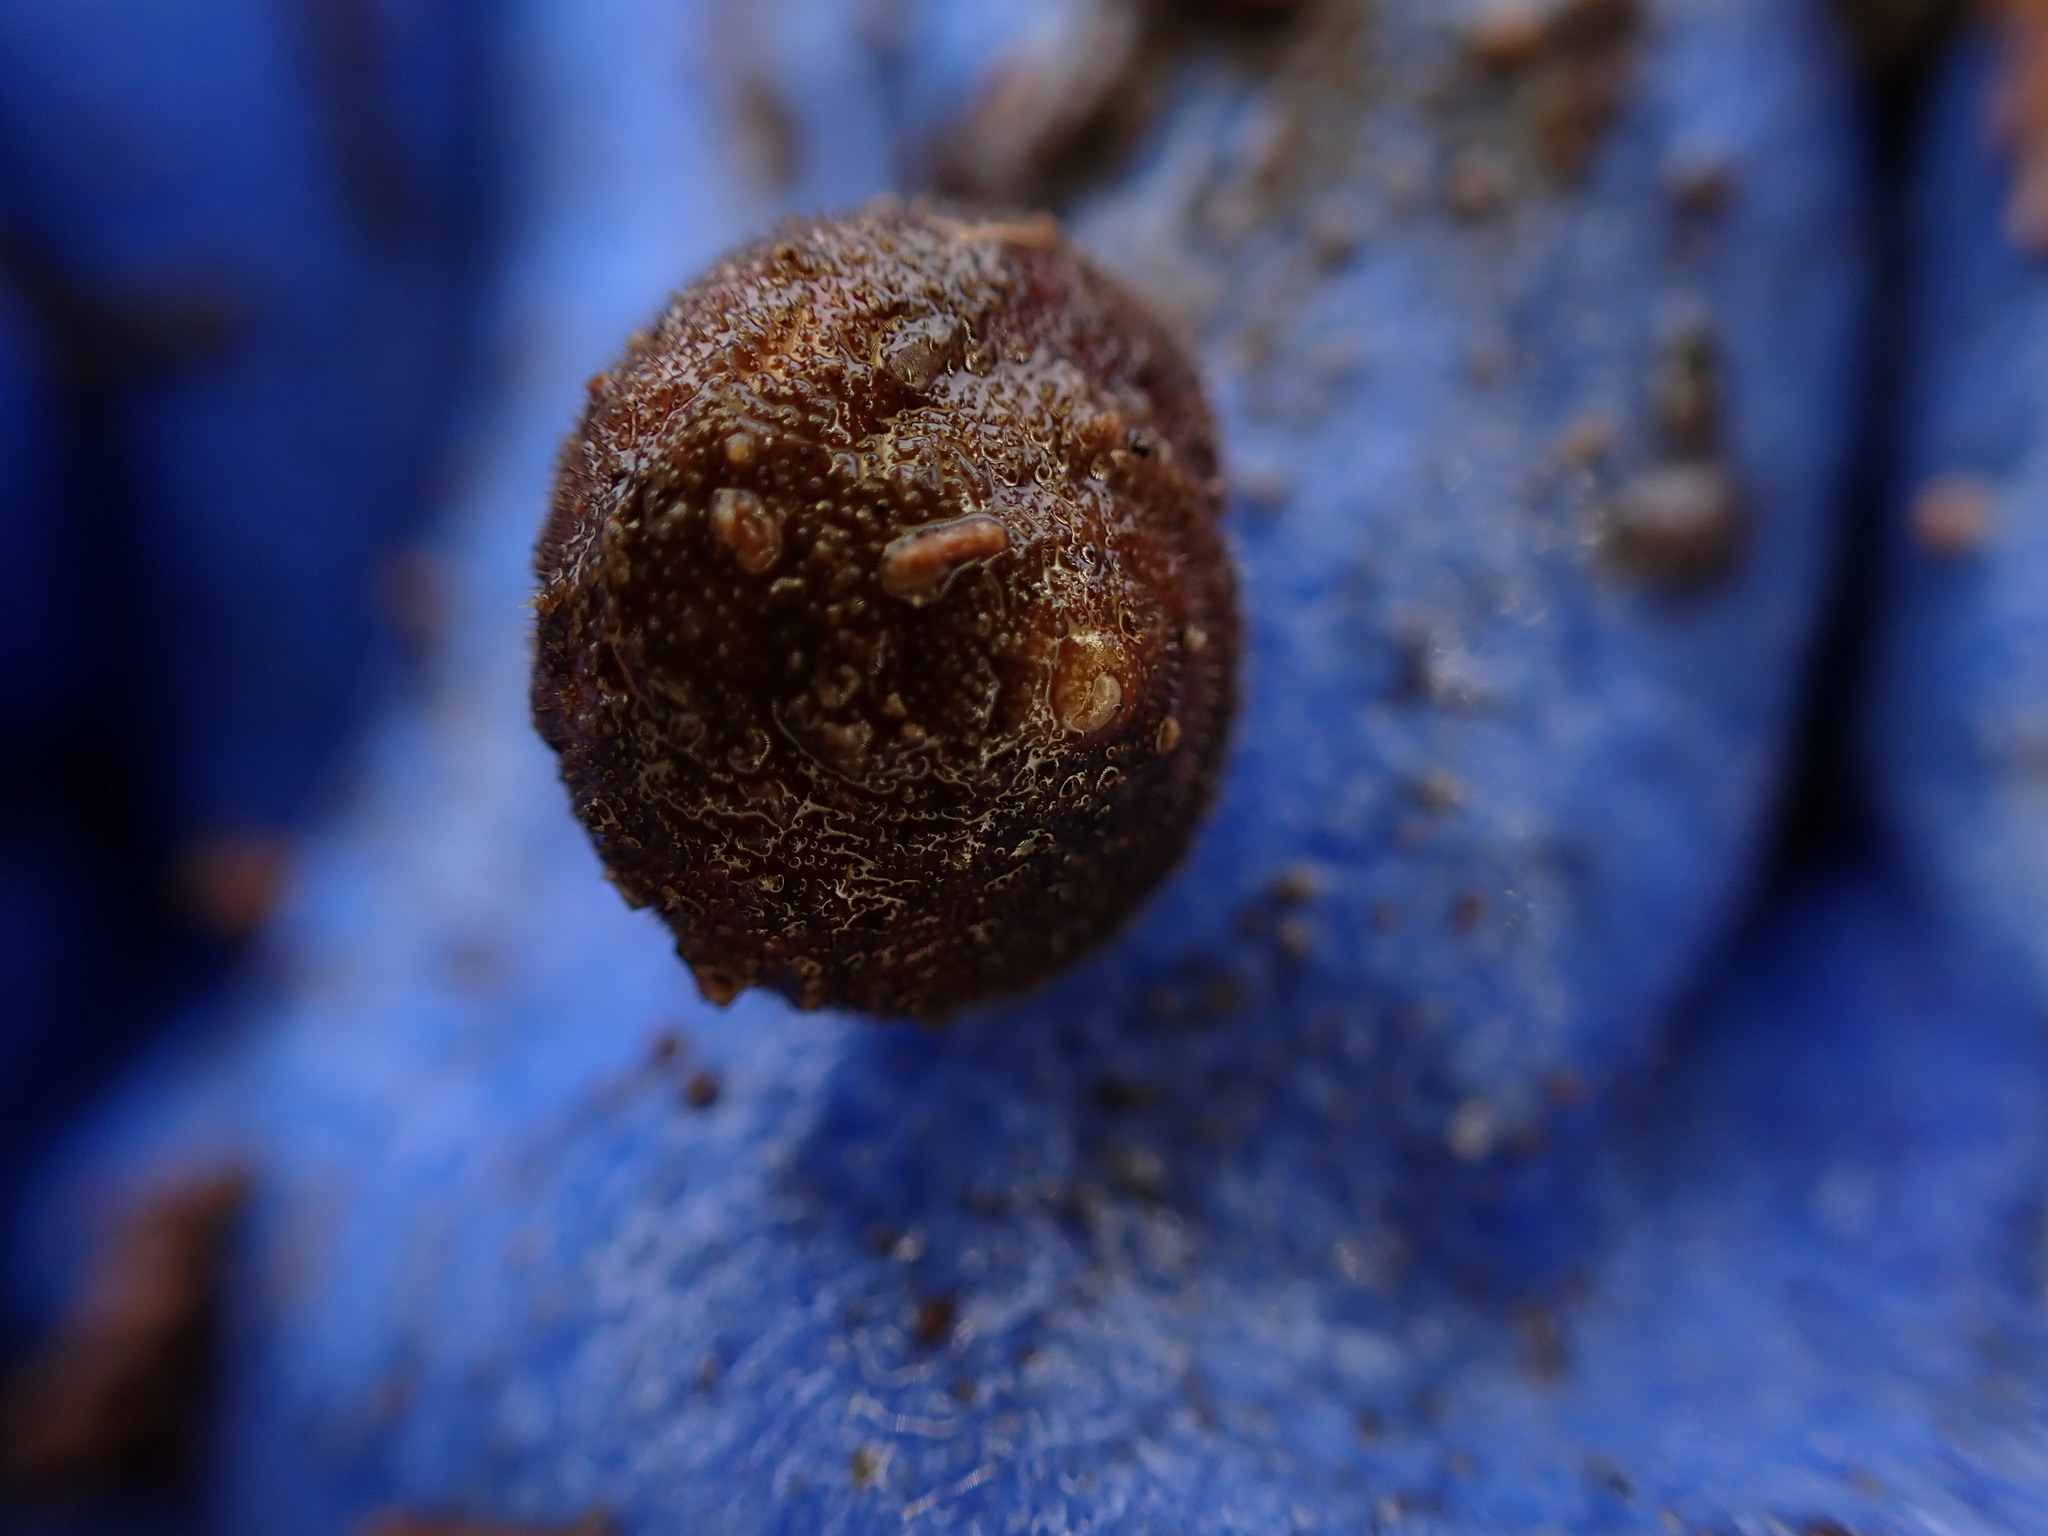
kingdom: Animalia
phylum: Mollusca
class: Gastropoda
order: Stylommatophora
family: Polygyridae
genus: Vespericola
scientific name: Vespericola columbianus
